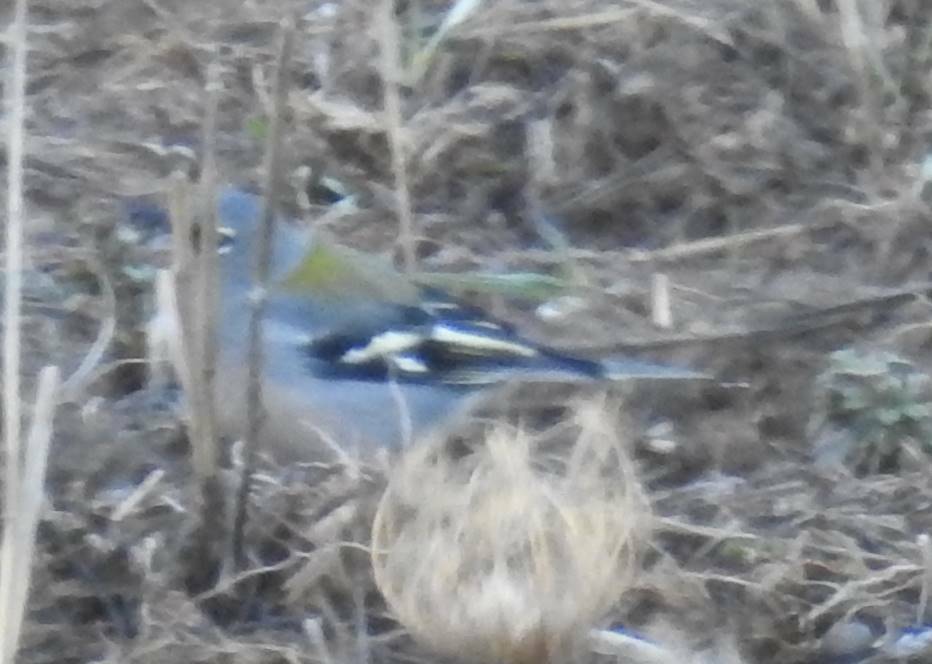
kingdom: Animalia
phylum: Chordata
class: Aves
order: Passeriformes
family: Fringillidae
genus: Fringilla
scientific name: Fringilla spodiogenys
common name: African chaffinch
